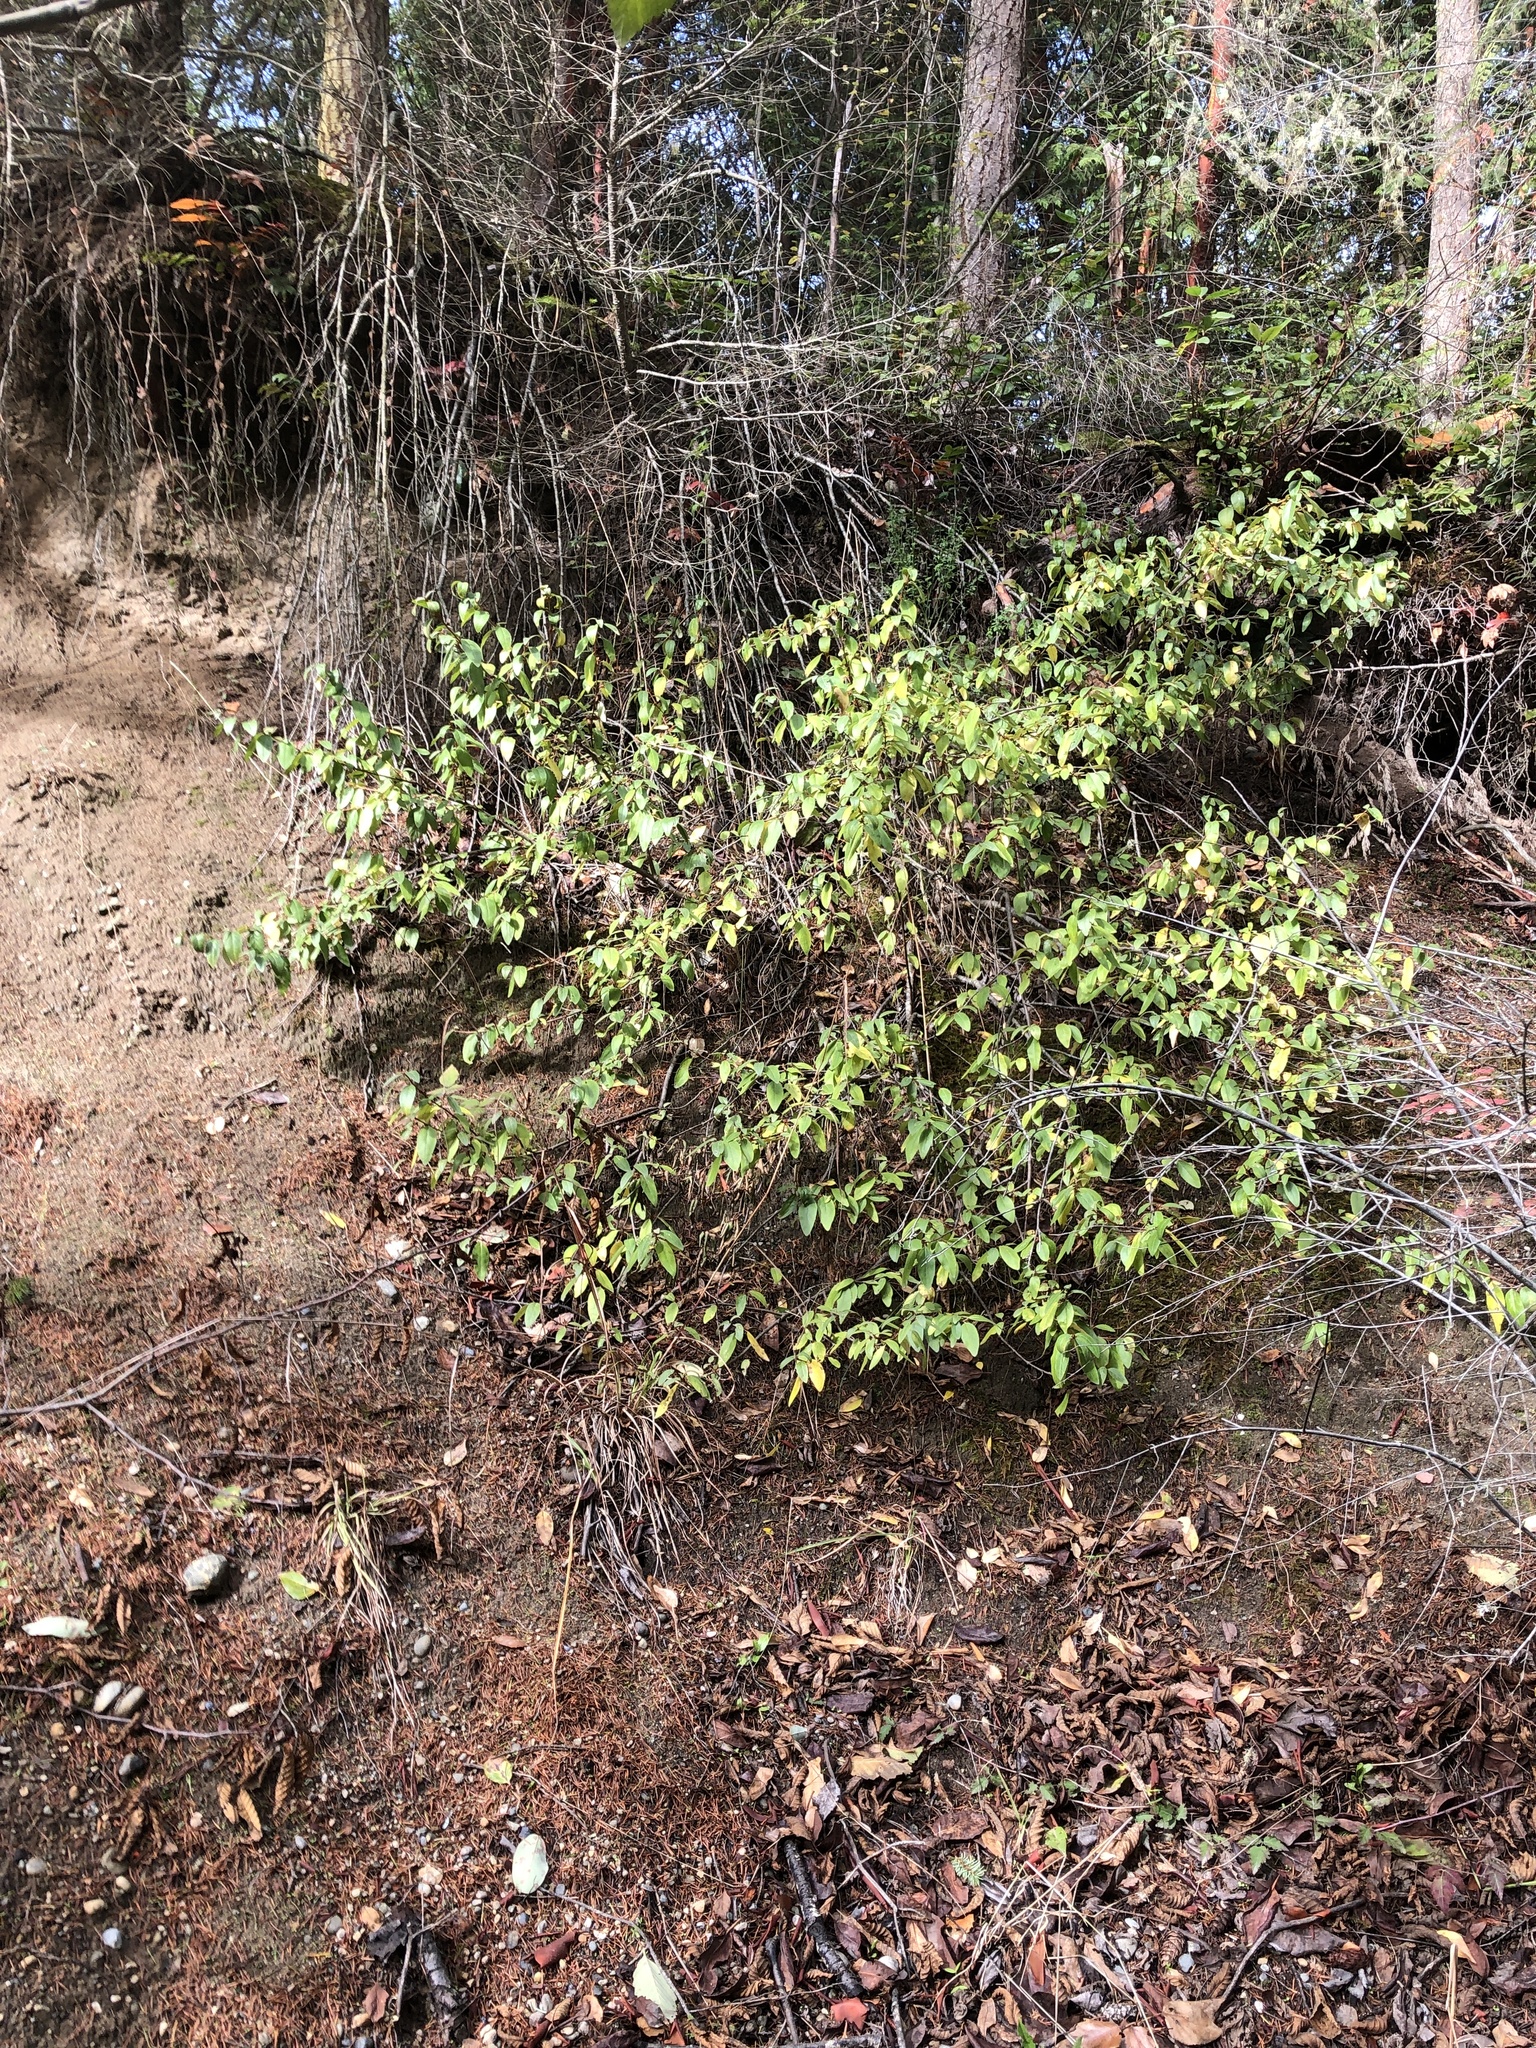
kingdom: Plantae
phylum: Tracheophyta
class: Magnoliopsida
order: Rosales
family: Elaeagnaceae
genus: Shepherdia
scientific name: Shepherdia canadensis
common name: Soapberry
